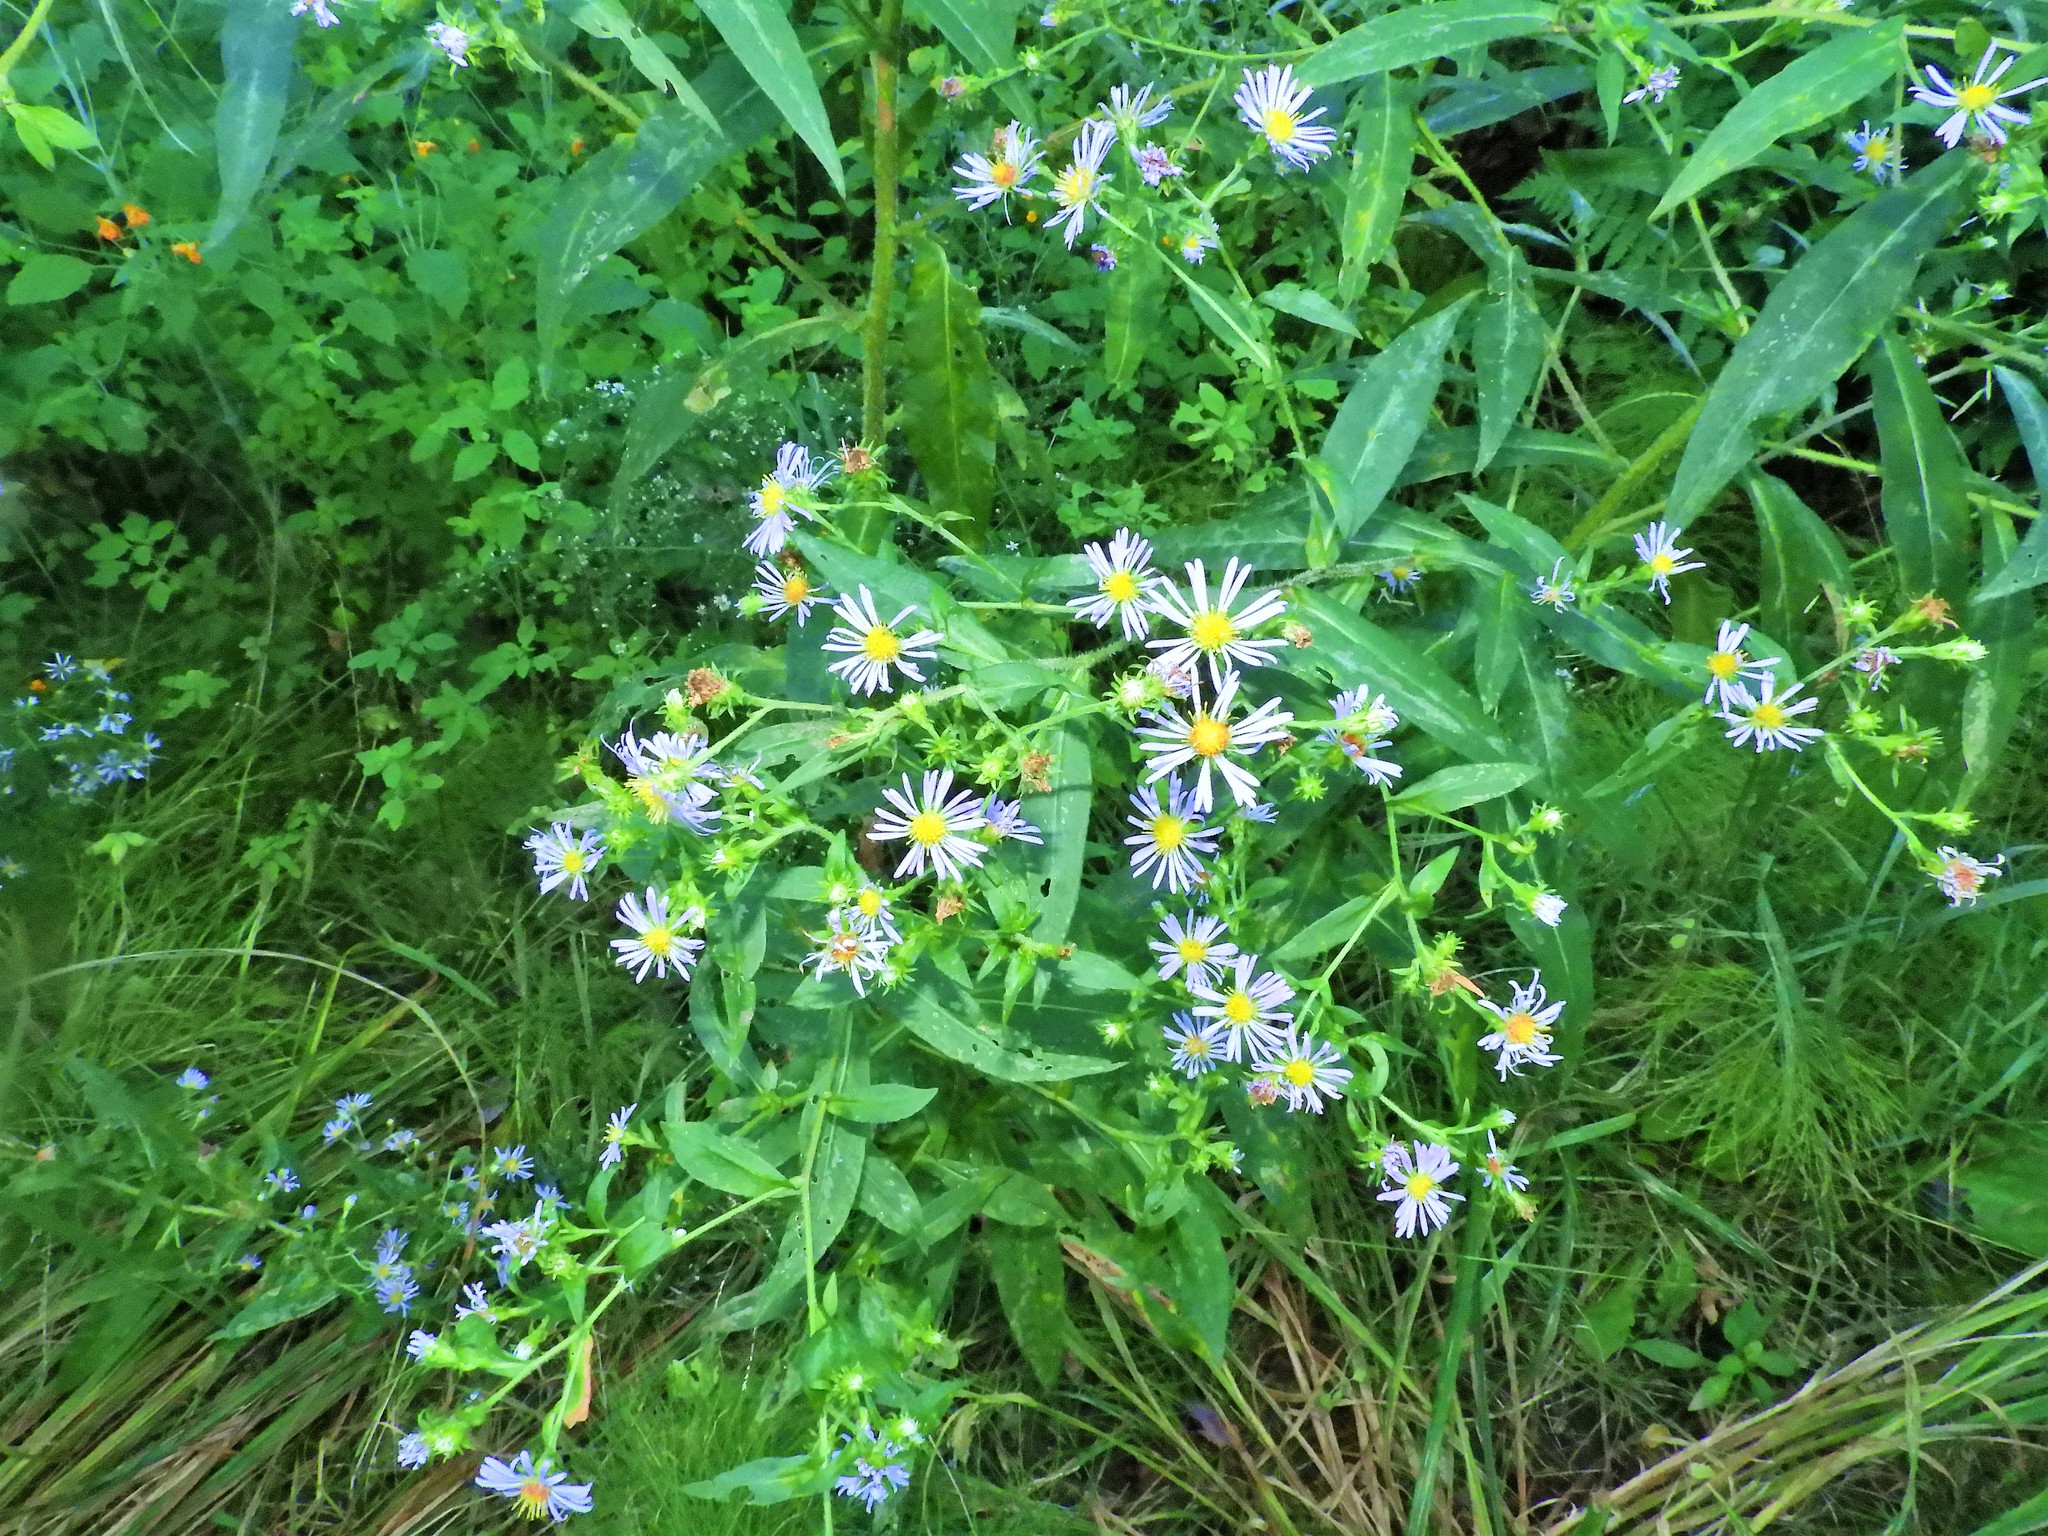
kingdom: Plantae
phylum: Tracheophyta
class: Magnoliopsida
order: Asterales
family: Asteraceae
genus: Symphyotrichum
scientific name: Symphyotrichum puniceum
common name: Bog aster
